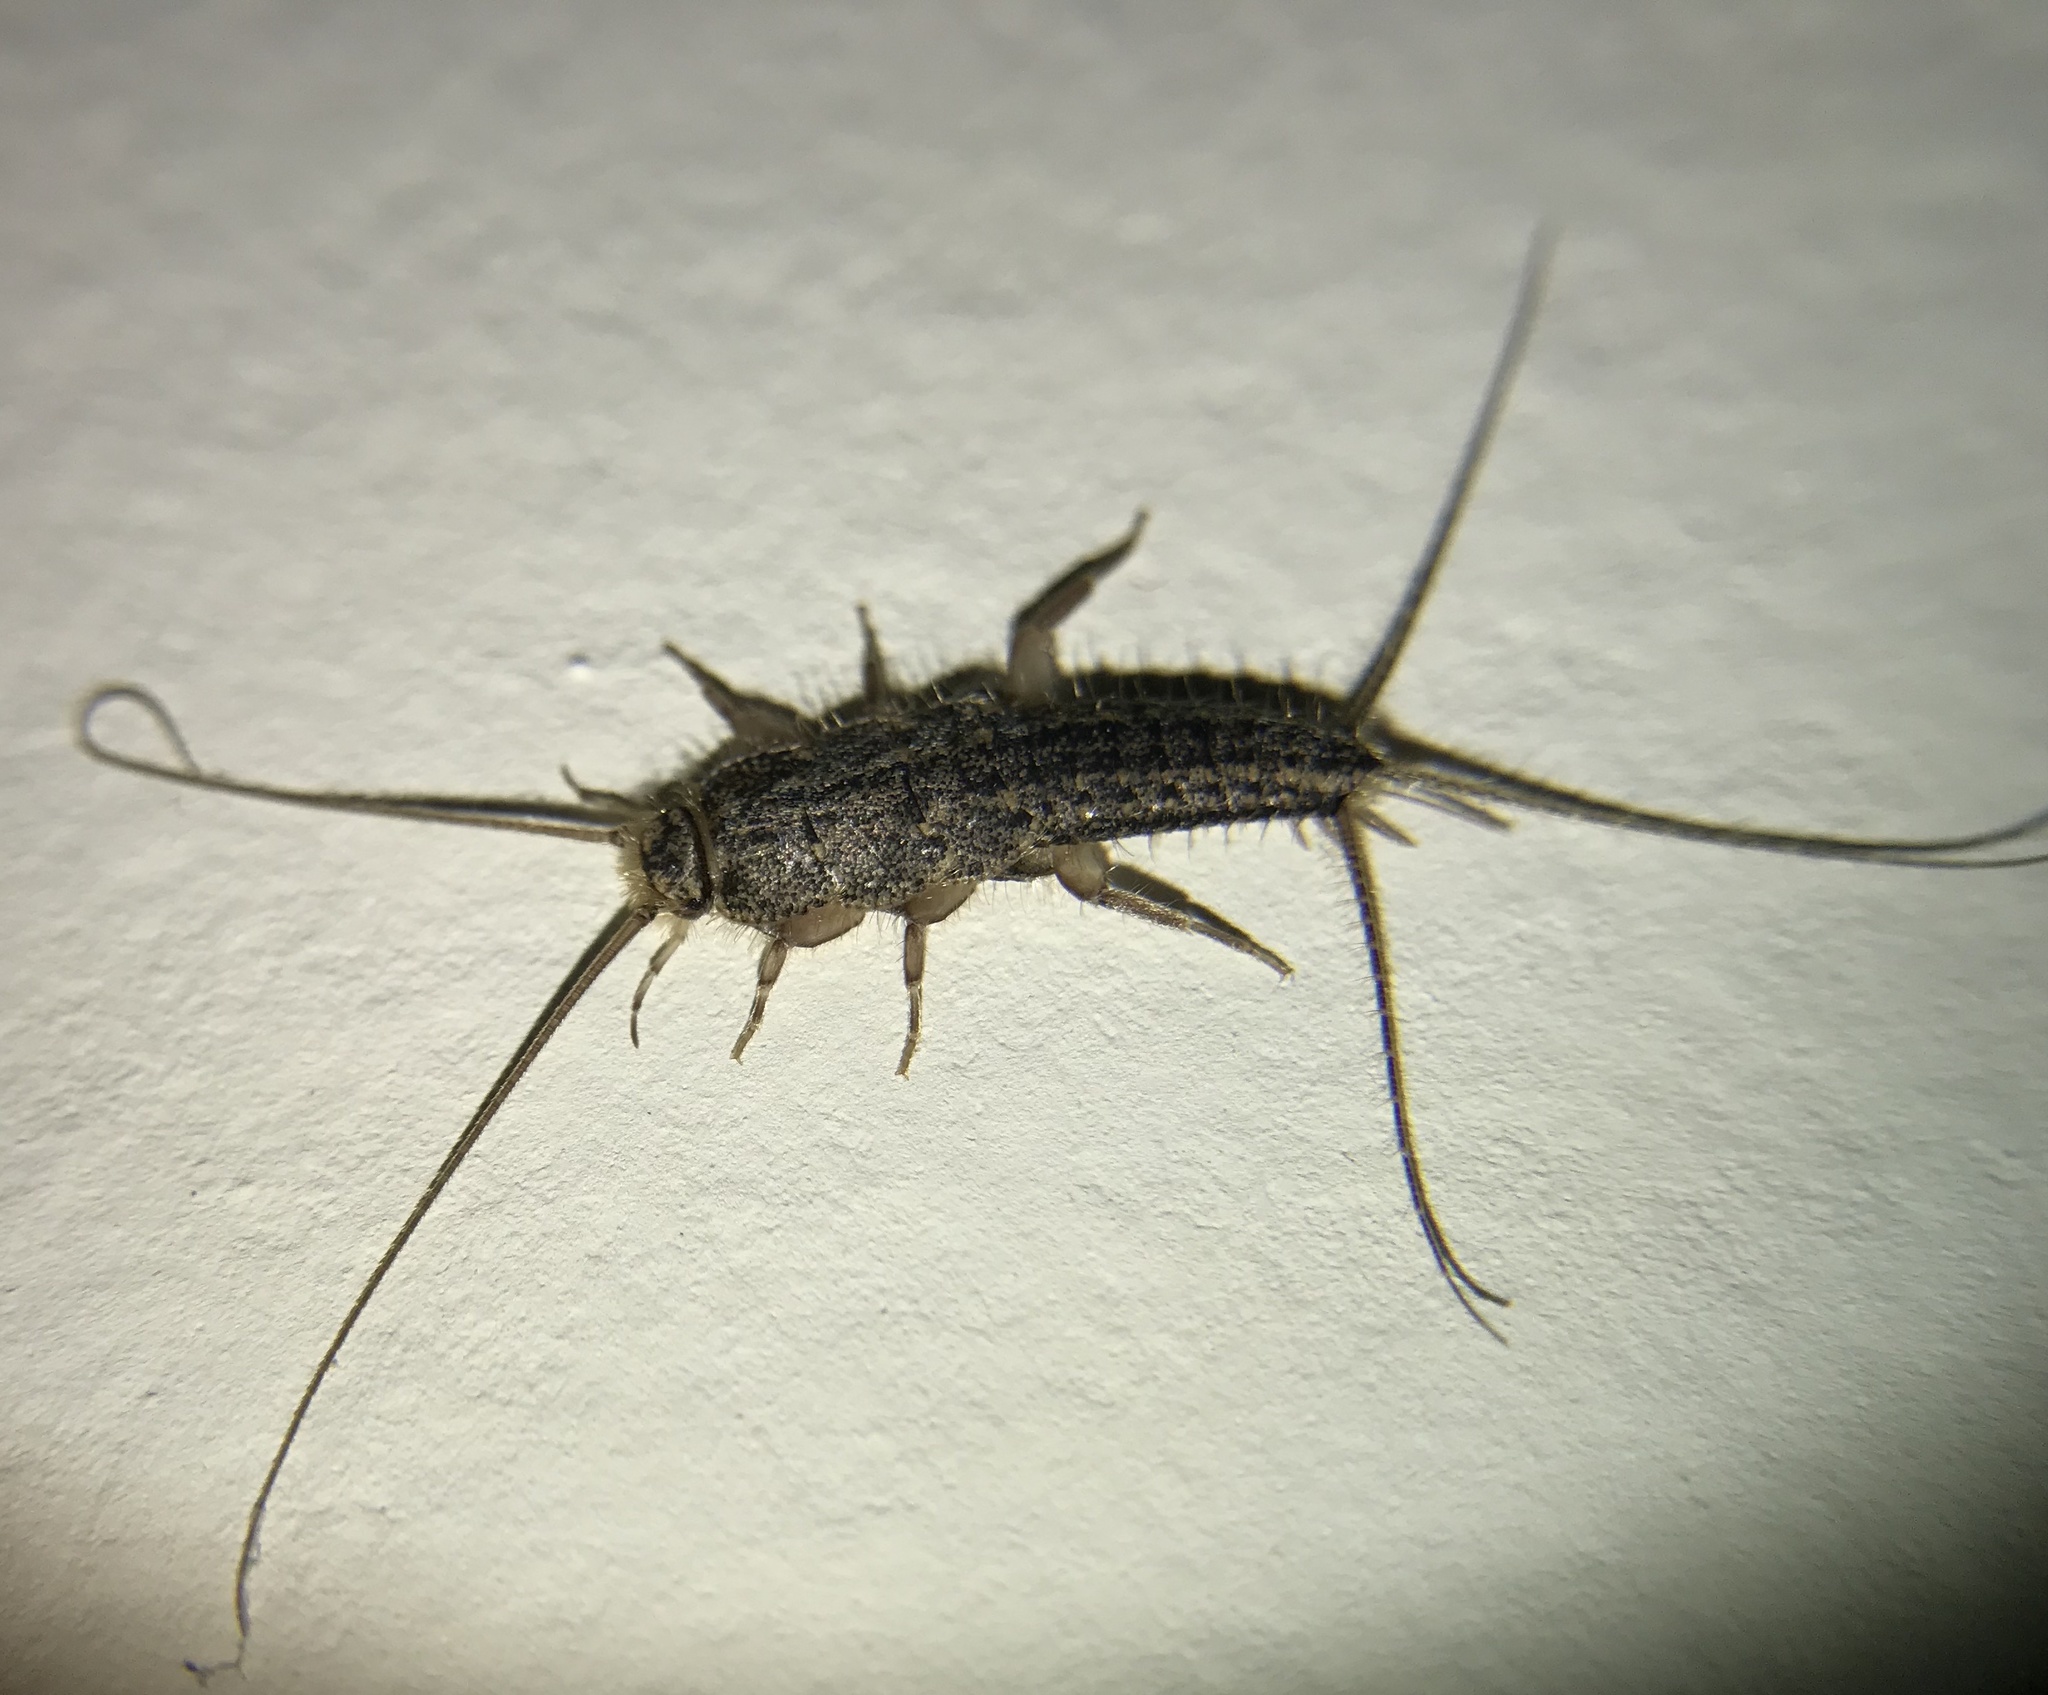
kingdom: Animalia
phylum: Arthropoda
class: Insecta
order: Zygentoma
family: Lepismatidae
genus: Ctenolepisma
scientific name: Ctenolepisma lineata
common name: Four-lined silverfish
